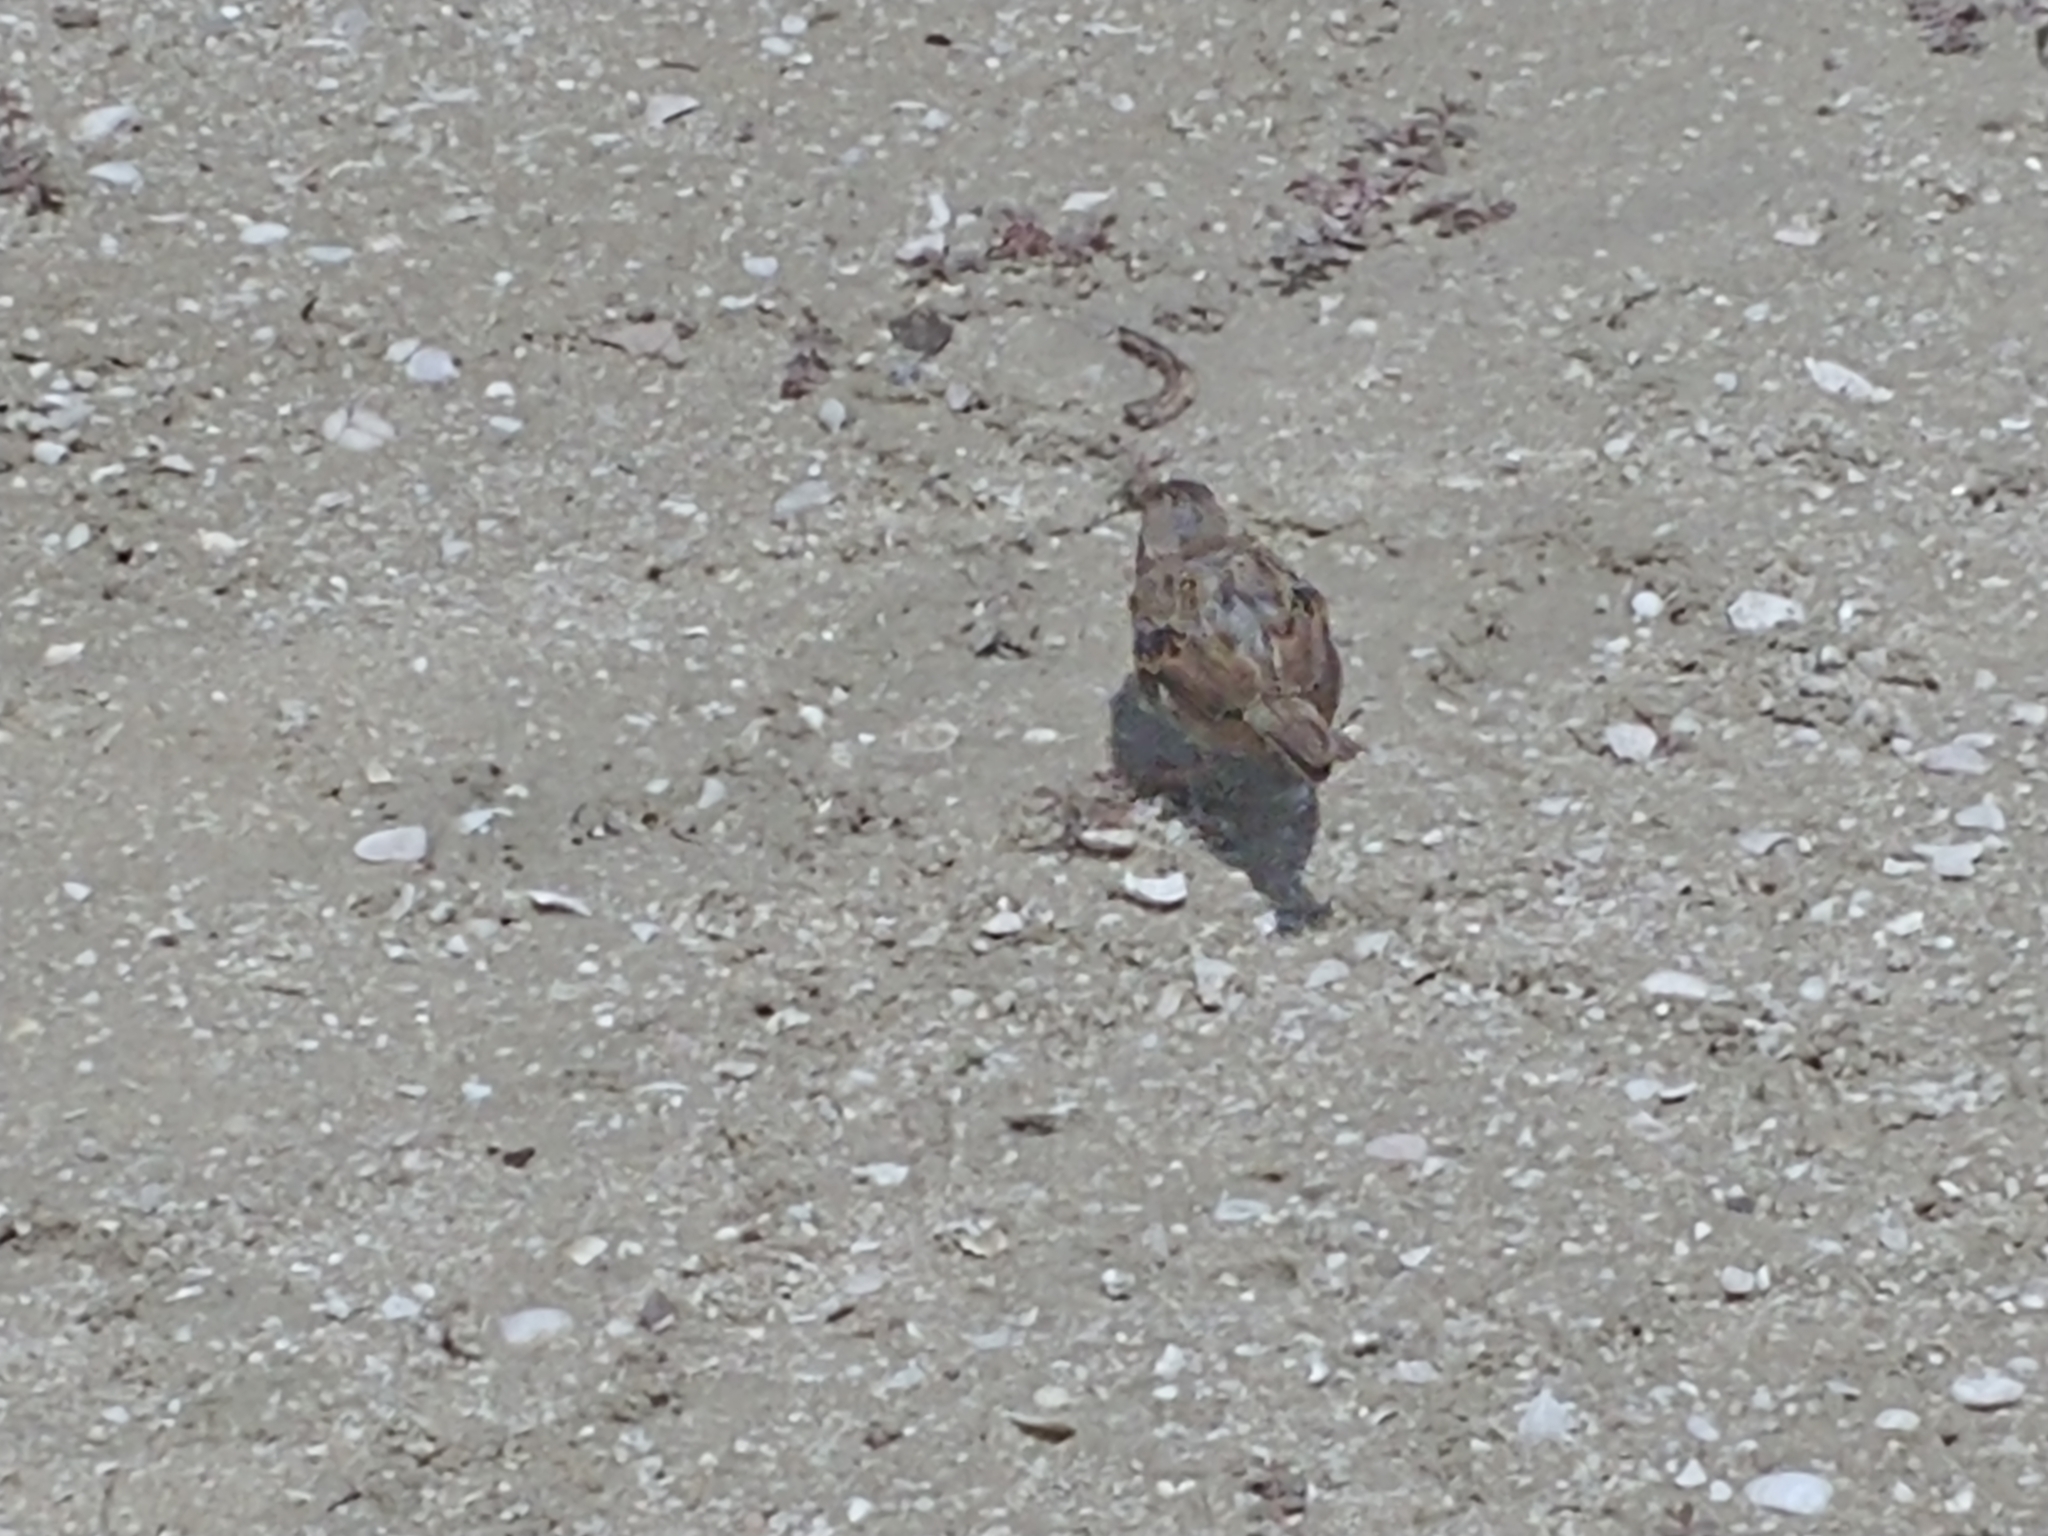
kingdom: Animalia
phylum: Chordata
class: Aves
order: Passeriformes
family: Passeridae
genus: Passer
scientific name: Passer domesticus
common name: House sparrow
